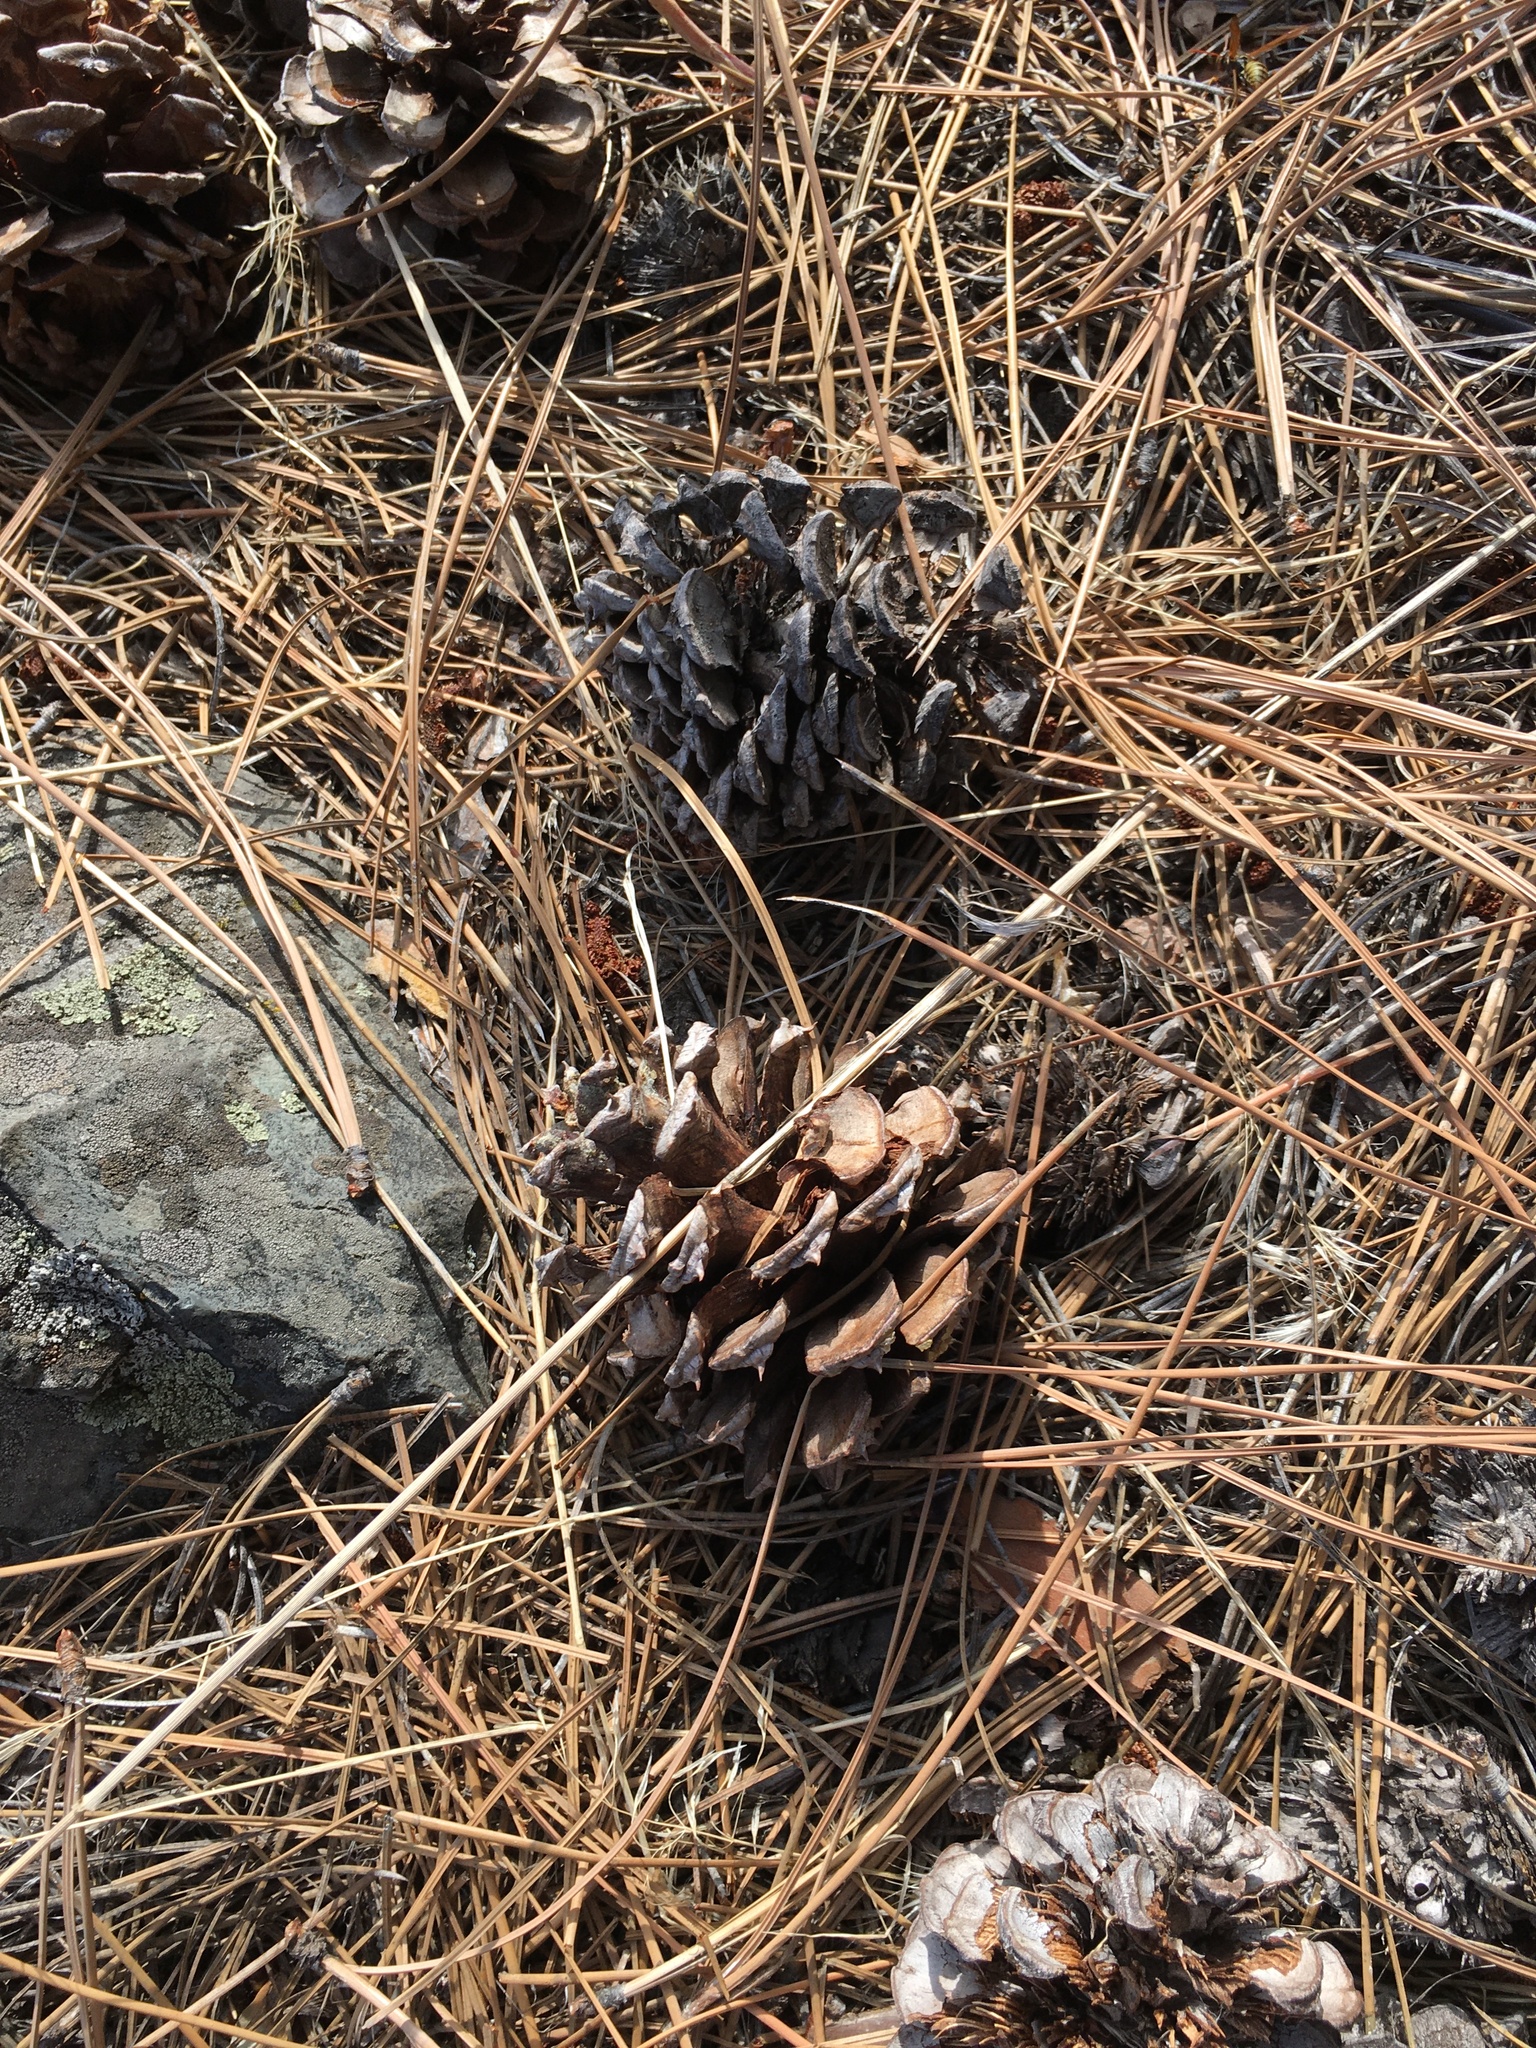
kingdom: Plantae
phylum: Tracheophyta
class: Pinopsida
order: Pinales
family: Pinaceae
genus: Pinus
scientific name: Pinus ponderosa
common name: Western yellow-pine
